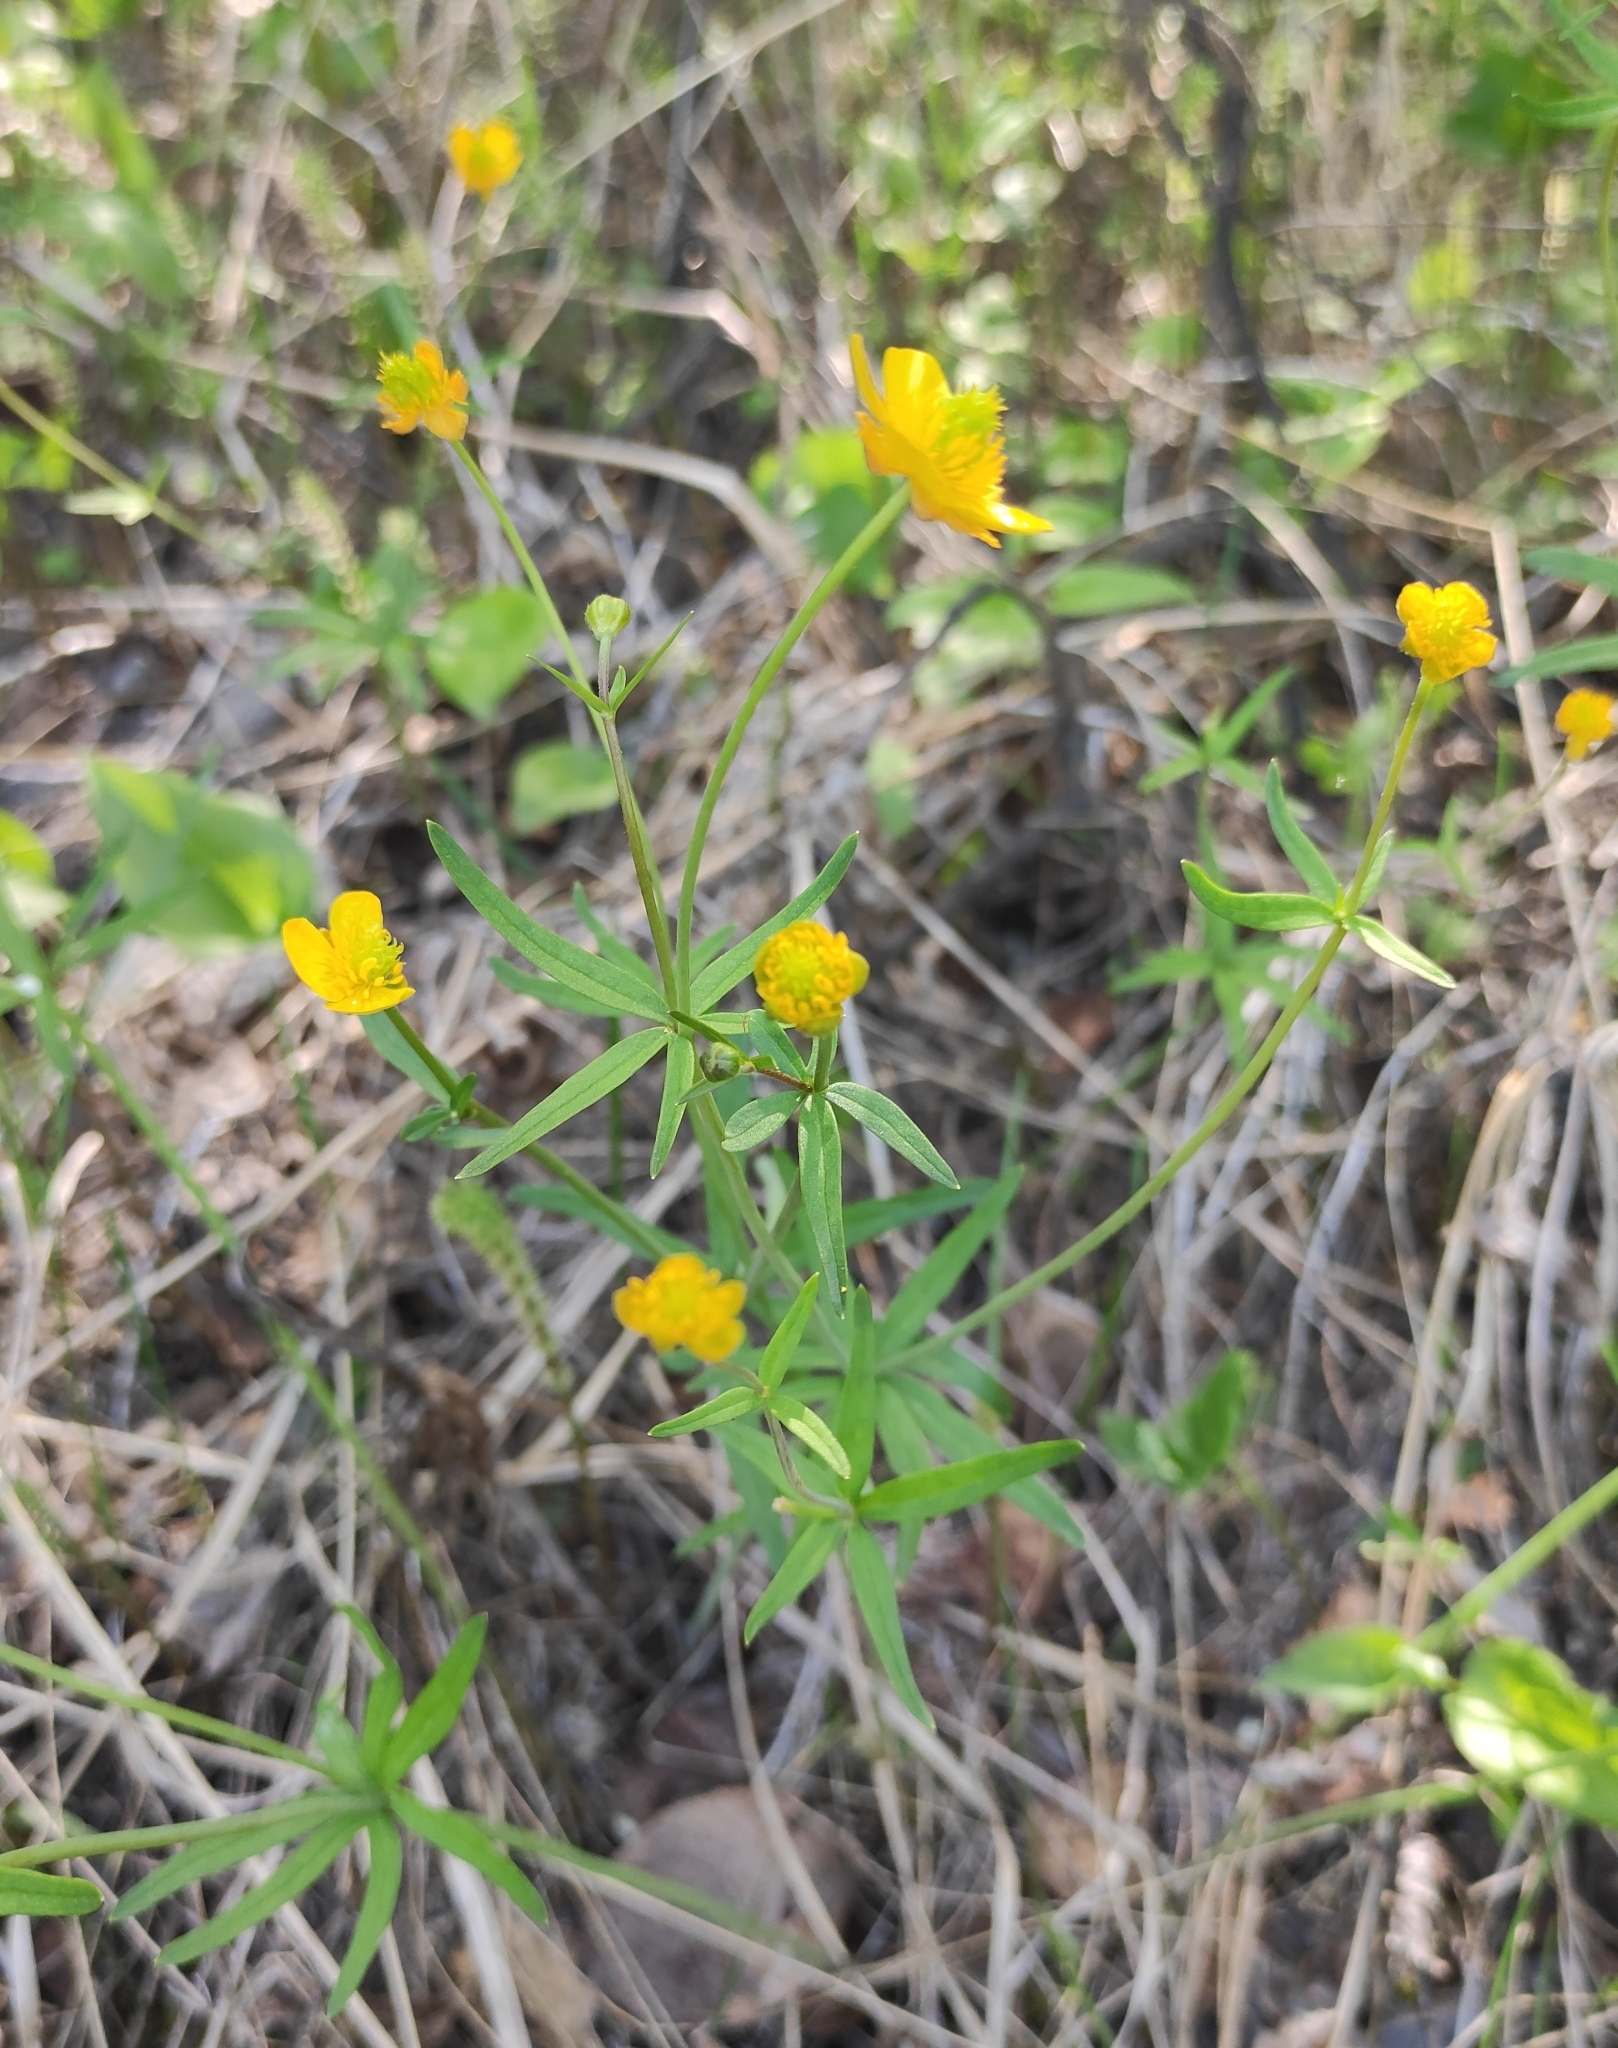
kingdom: Plantae
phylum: Tracheophyta
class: Magnoliopsida
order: Ranunculales
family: Ranunculaceae
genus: Ranunculus
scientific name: Ranunculus monophyllus
